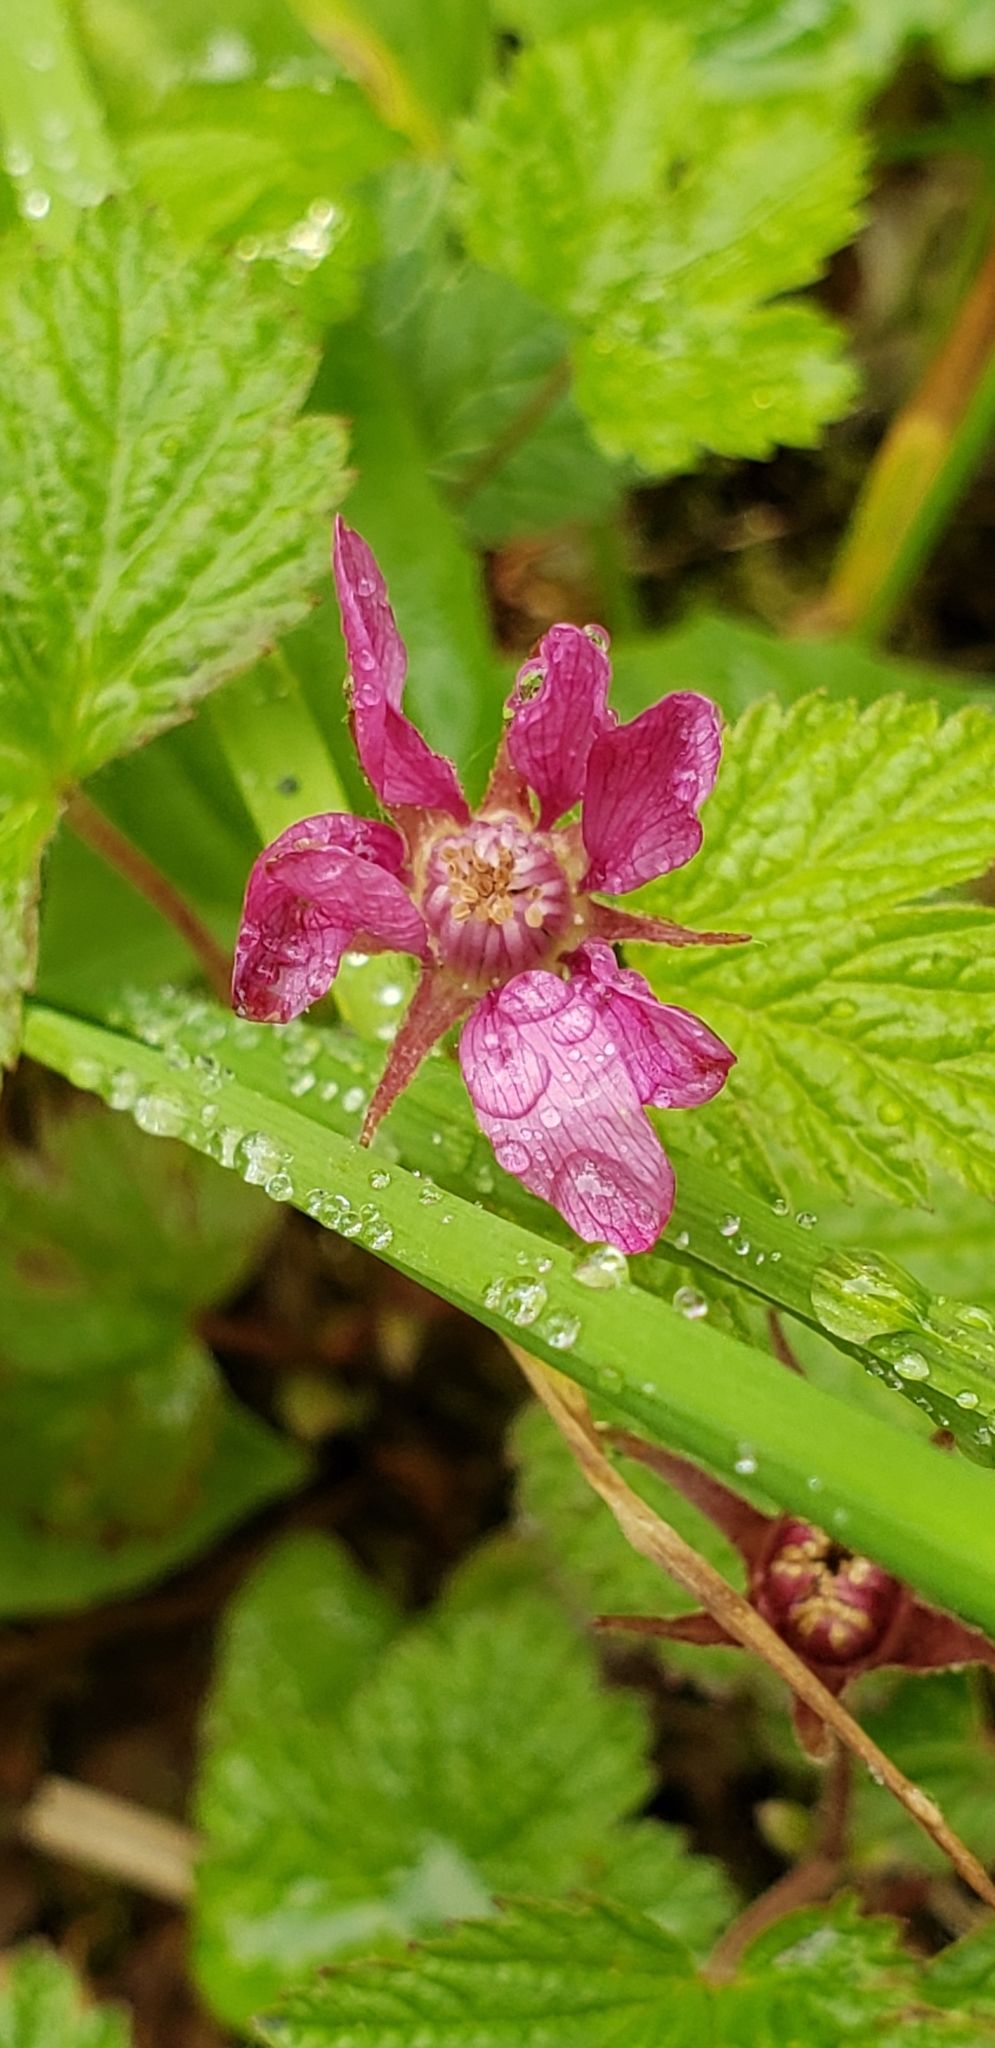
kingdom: Plantae
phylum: Tracheophyta
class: Magnoliopsida
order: Rosales
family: Rosaceae
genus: Rubus
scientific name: Rubus arcticus
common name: Arctic bramble
